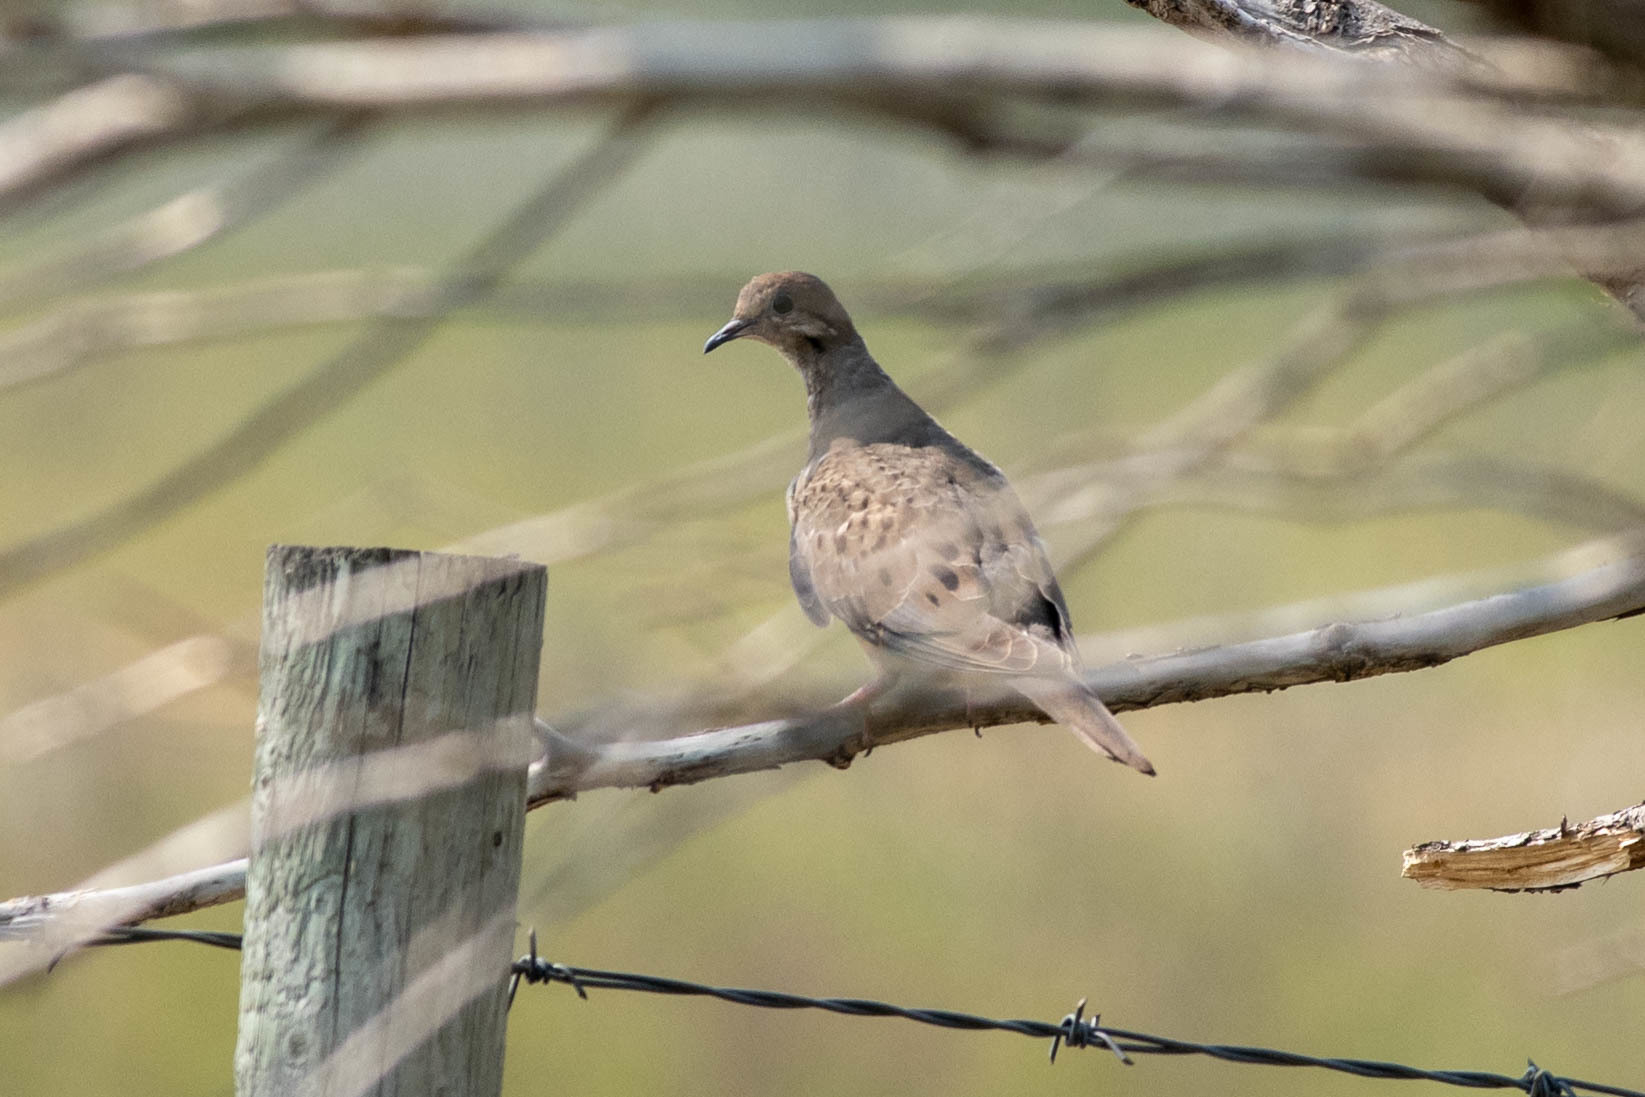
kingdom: Animalia
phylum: Chordata
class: Aves
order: Columbiformes
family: Columbidae
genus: Zenaida
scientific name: Zenaida macroura
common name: Mourning dove
